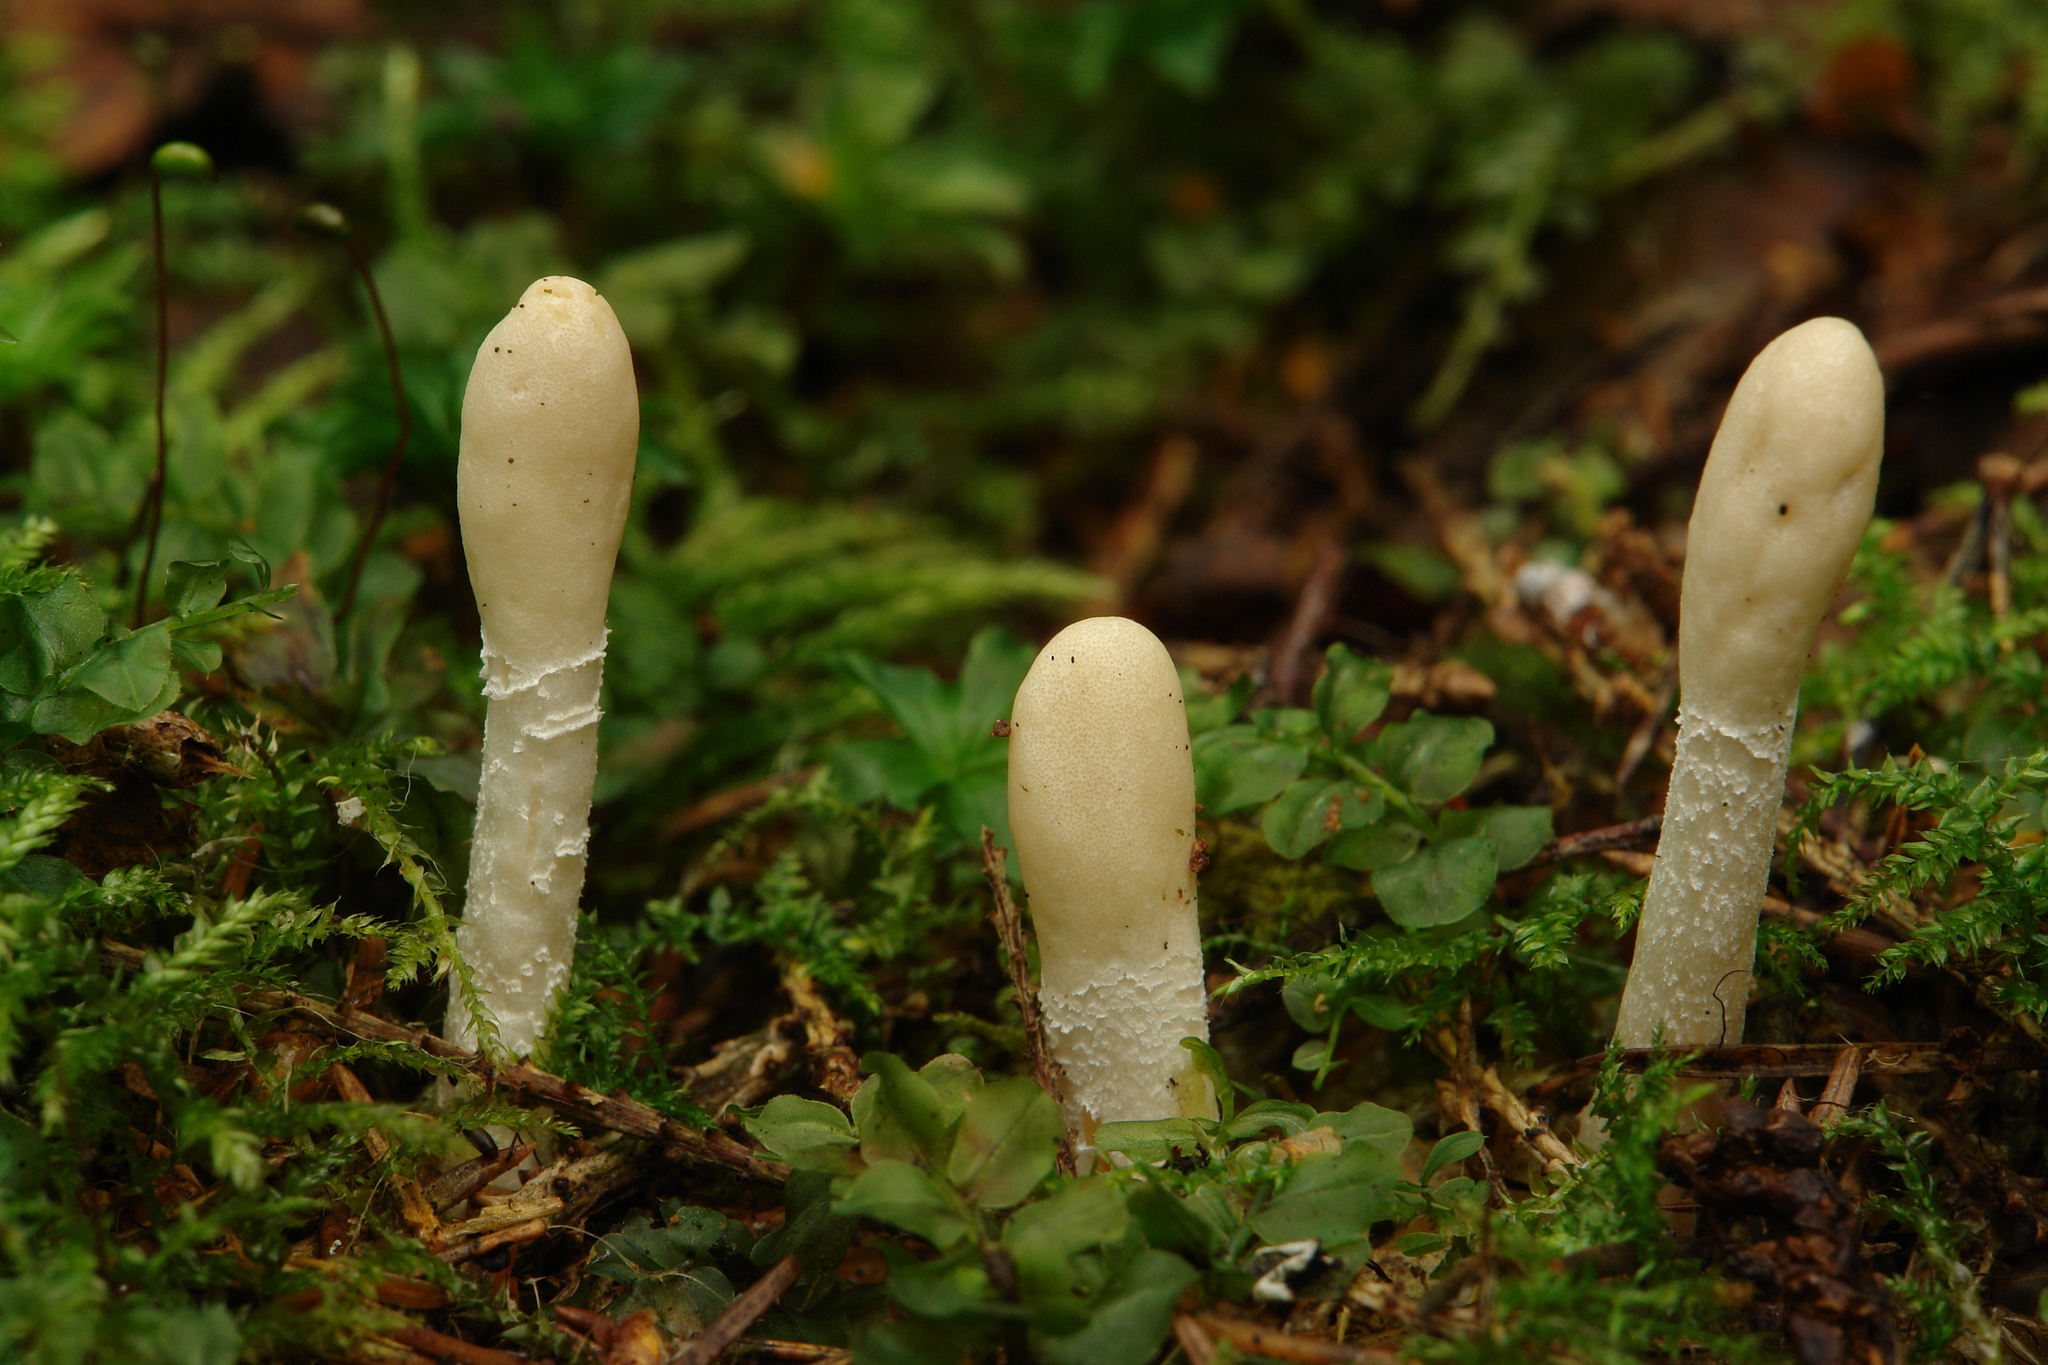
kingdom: Fungi
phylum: Ascomycota
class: Sordariomycetes
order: Hypocreales
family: Hypocreaceae
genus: Trichoderma
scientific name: Trichoderma leucopus
